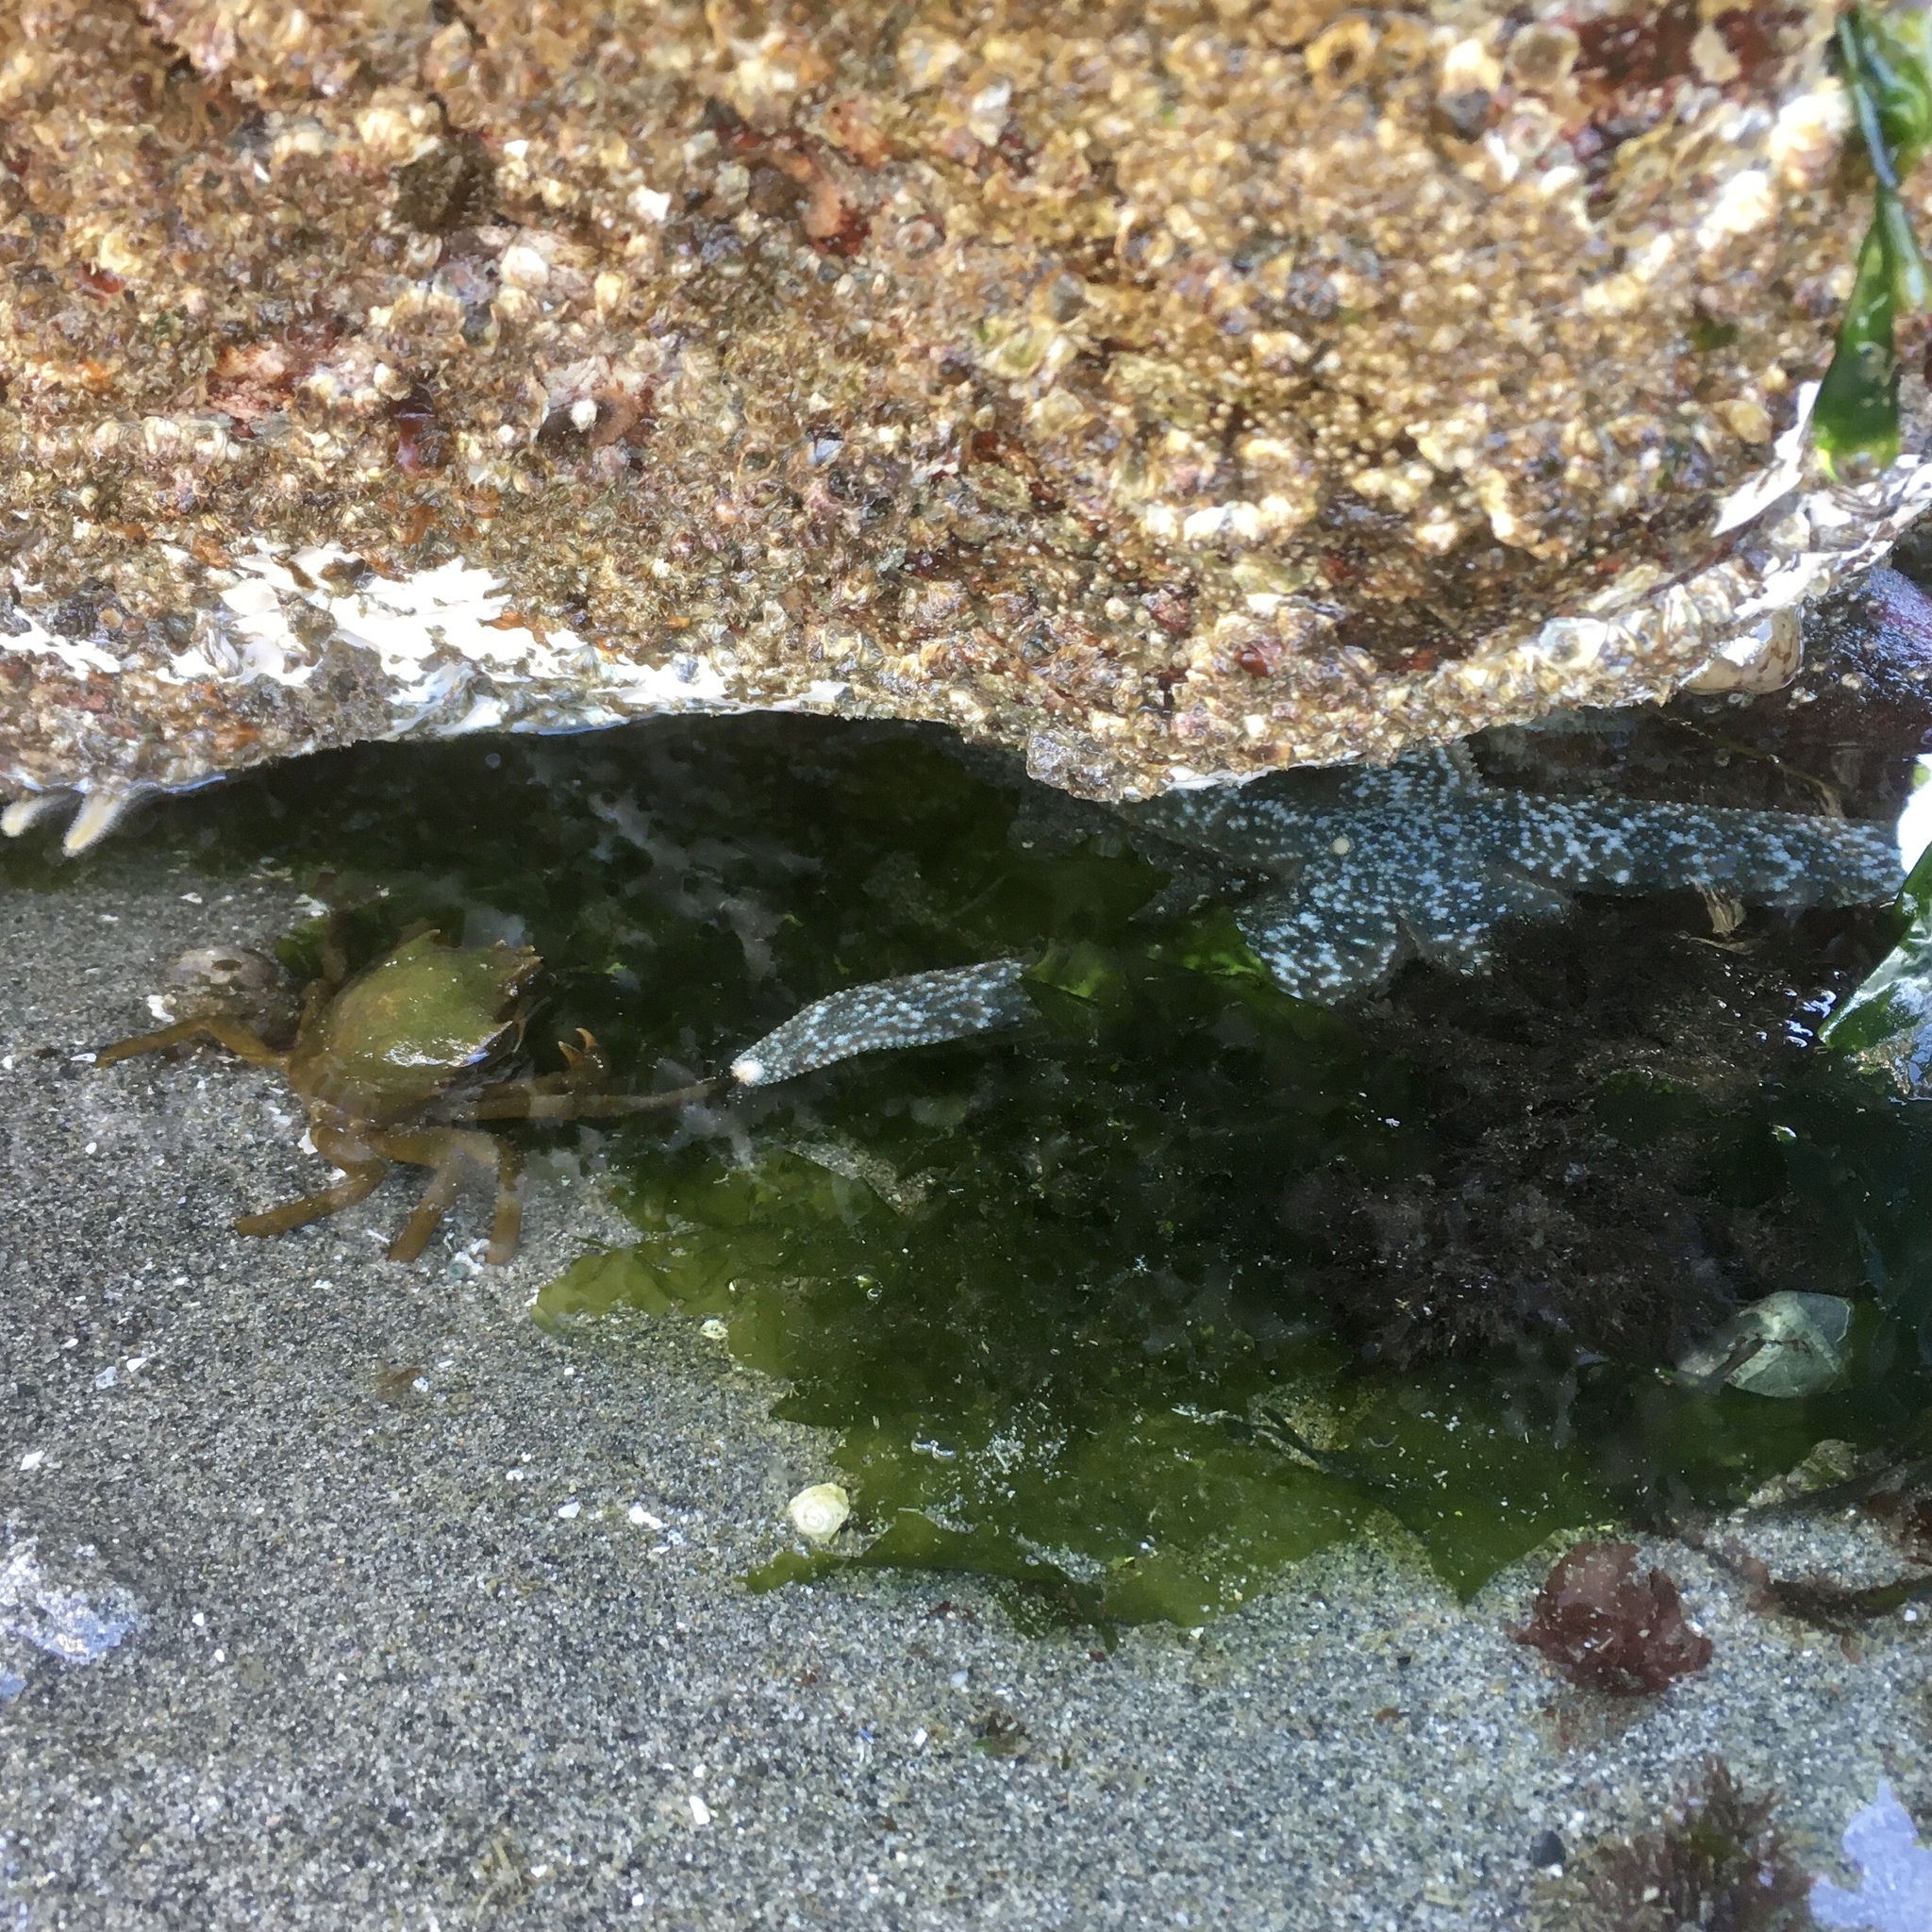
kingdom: Animalia
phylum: Echinodermata
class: Asteroidea
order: Forcipulatida
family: Asteriidae
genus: Evasterias
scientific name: Evasterias troschelii
